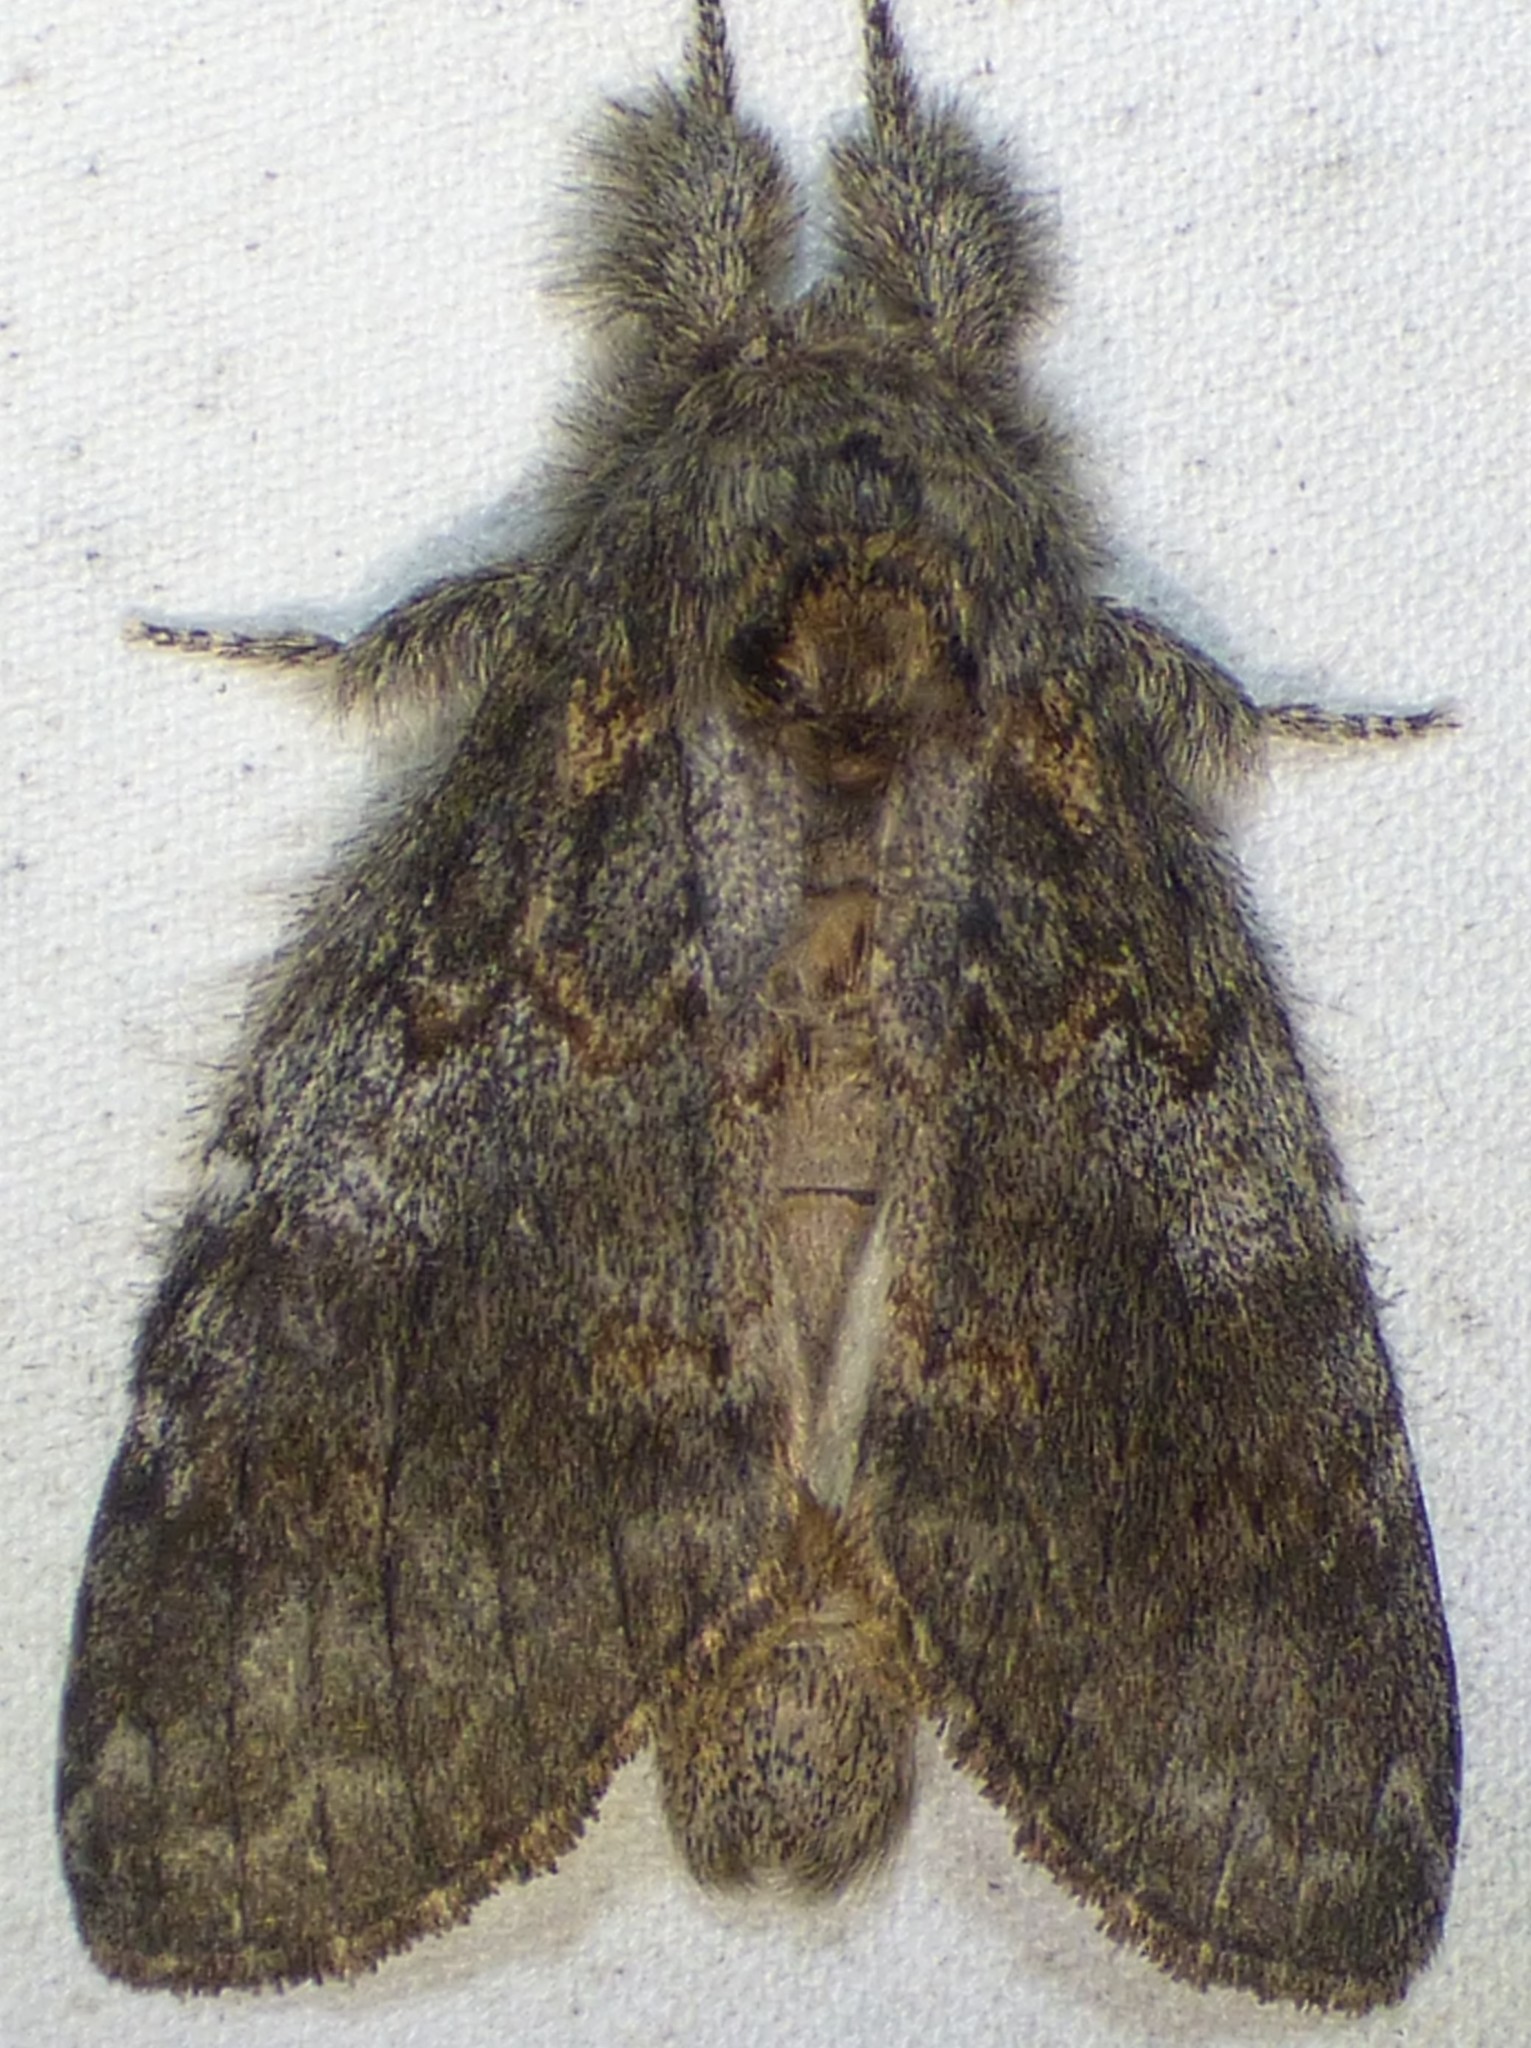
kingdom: Animalia
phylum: Arthropoda
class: Insecta
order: Lepidoptera
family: Notodontidae
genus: Peridea
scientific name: Peridea angulosa
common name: Angulose prominent
